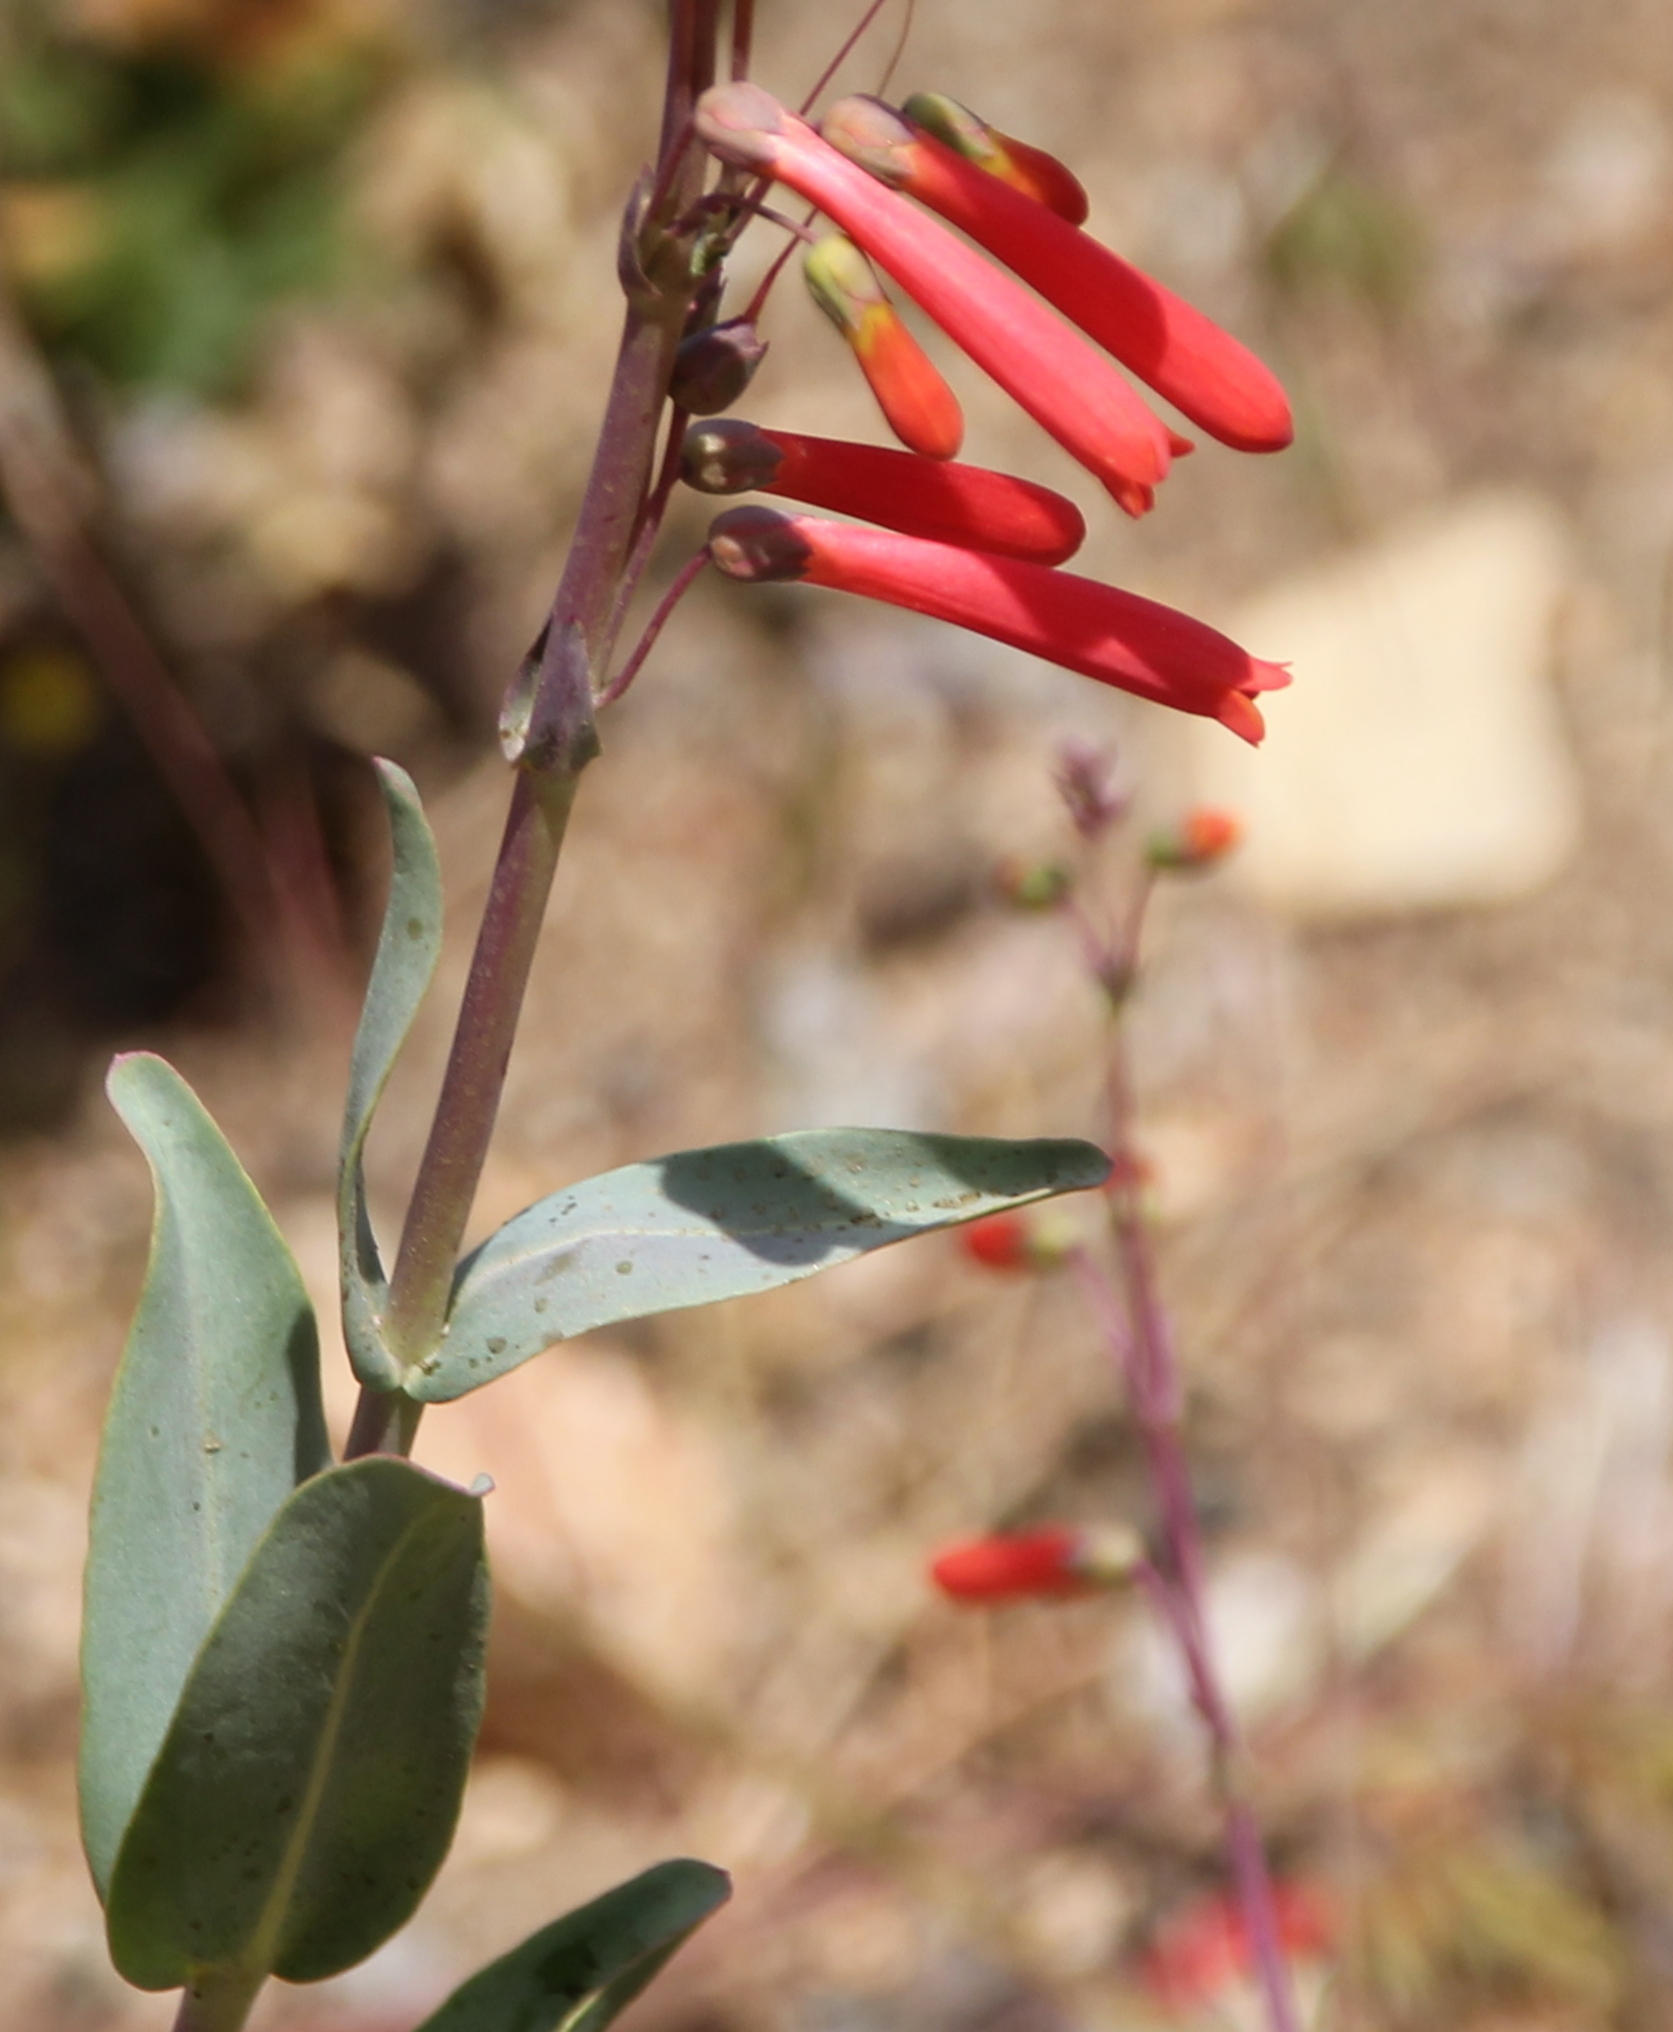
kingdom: Plantae
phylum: Tracheophyta
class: Magnoliopsida
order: Lamiales
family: Plantaginaceae
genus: Penstemon
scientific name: Penstemon centranthifolius
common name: Scarlet bugler
